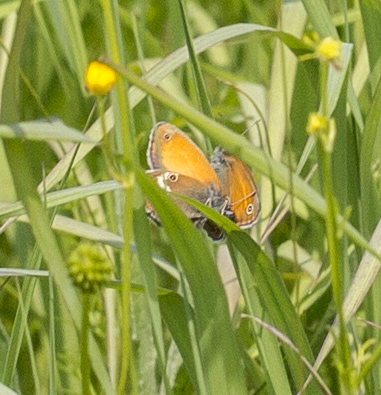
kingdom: Animalia
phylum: Arthropoda
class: Insecta
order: Lepidoptera
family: Nymphalidae
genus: Coenonympha
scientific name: Coenonympha arcania
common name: Pearly heath
